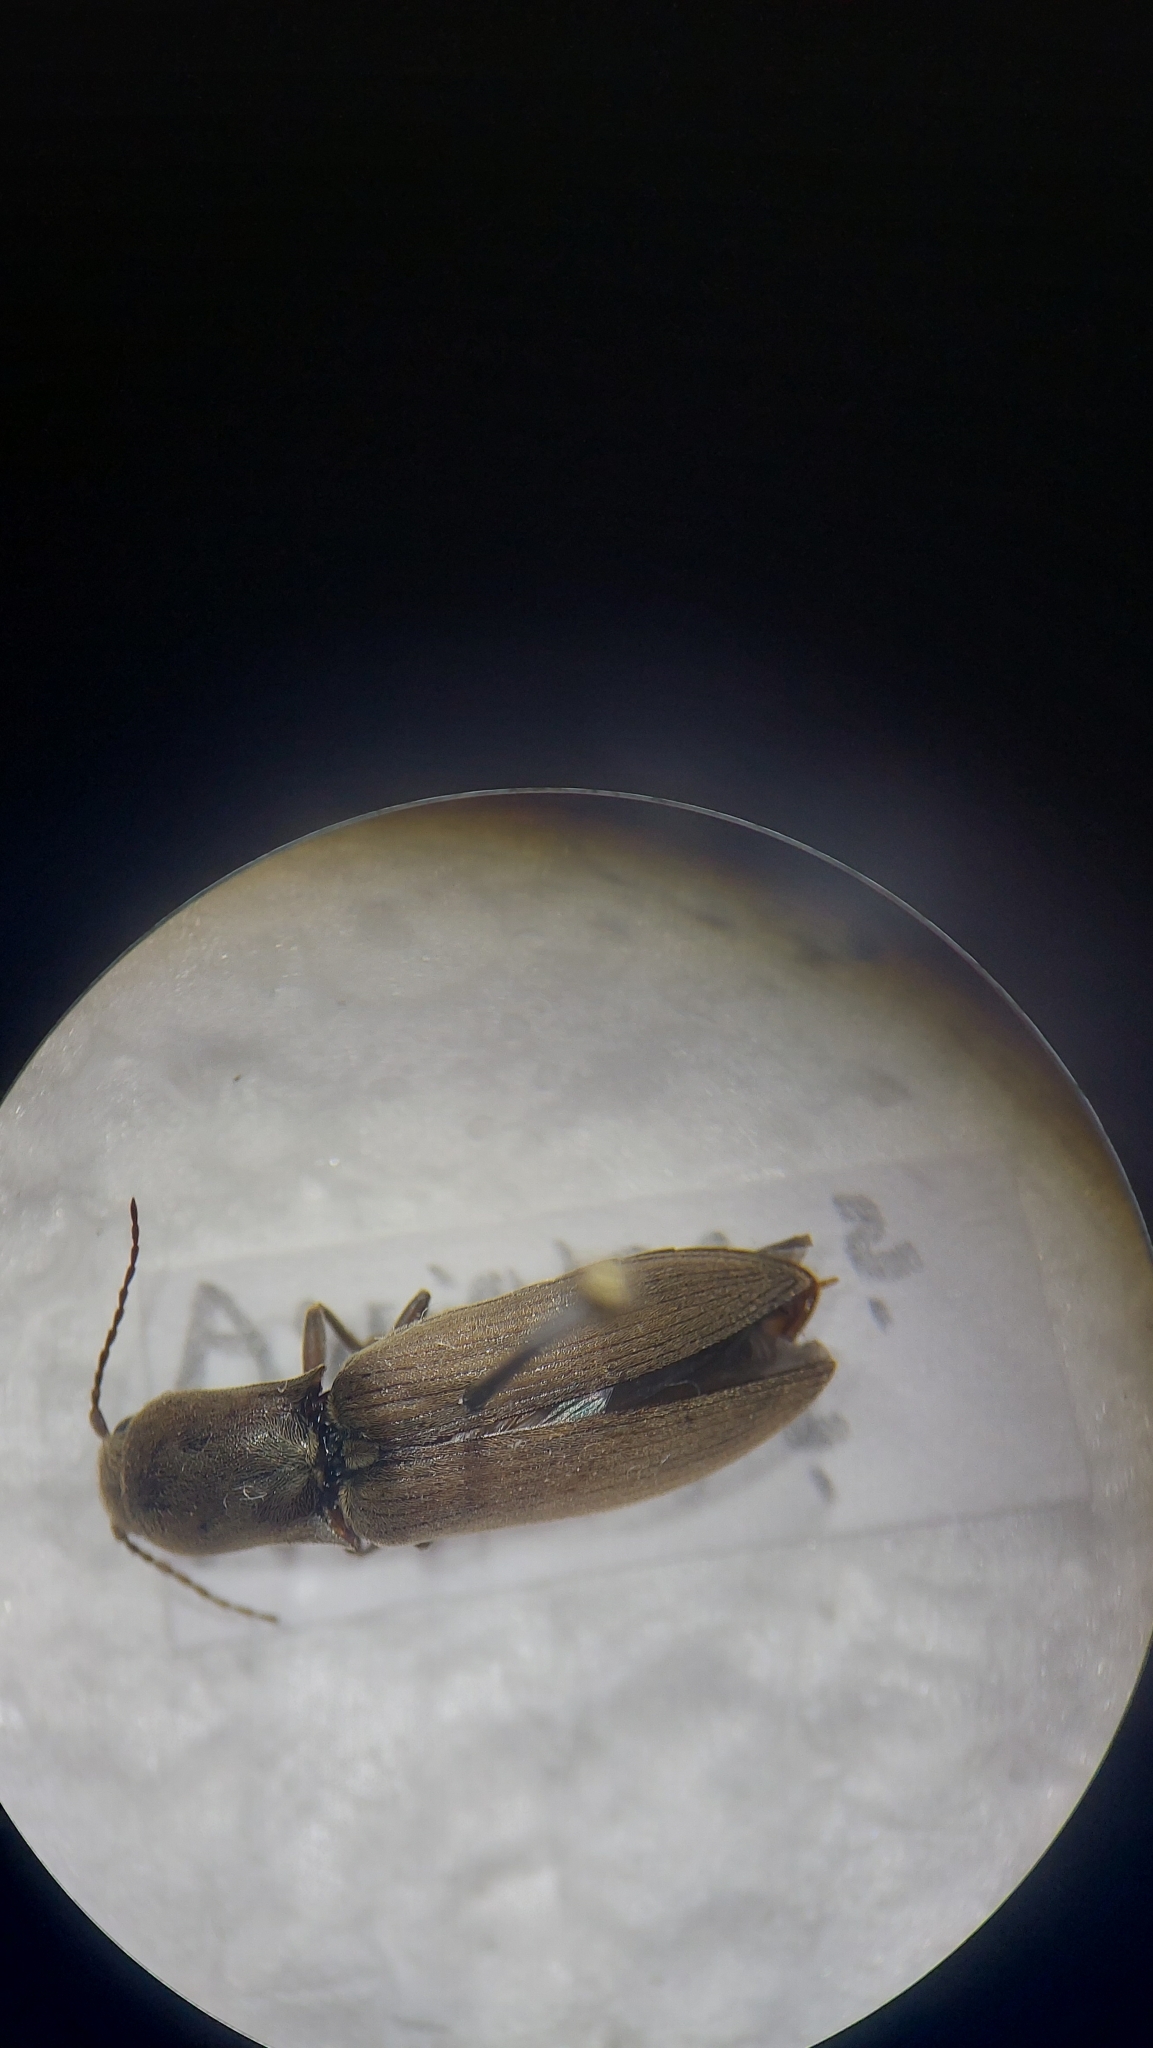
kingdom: Animalia
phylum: Arthropoda
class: Insecta
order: Coleoptera
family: Elateridae
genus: Agriotes
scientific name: Agriotes pilosellus
